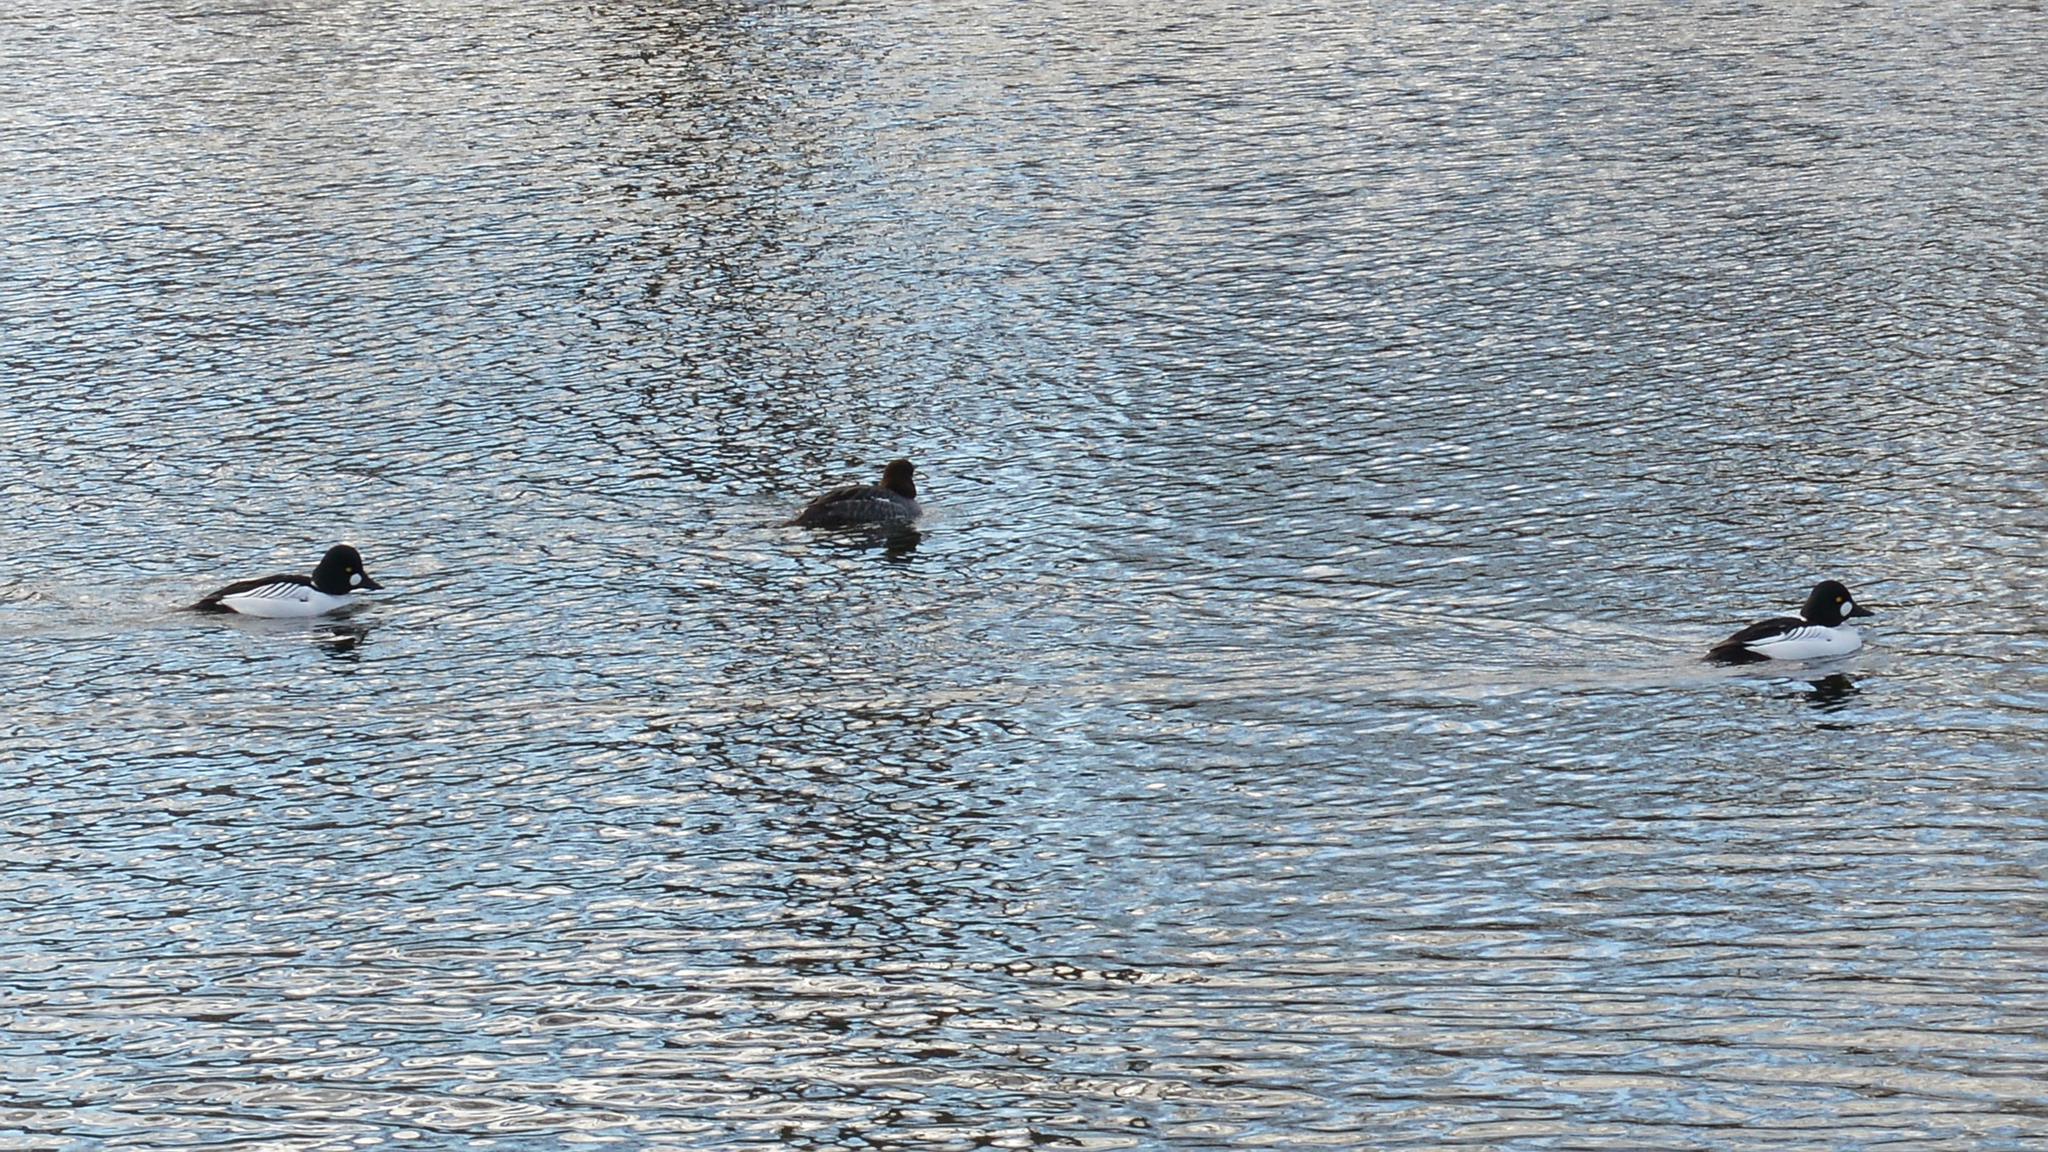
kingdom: Animalia
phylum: Chordata
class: Aves
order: Anseriformes
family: Anatidae
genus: Bucephala
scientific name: Bucephala clangula
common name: Common goldeneye
